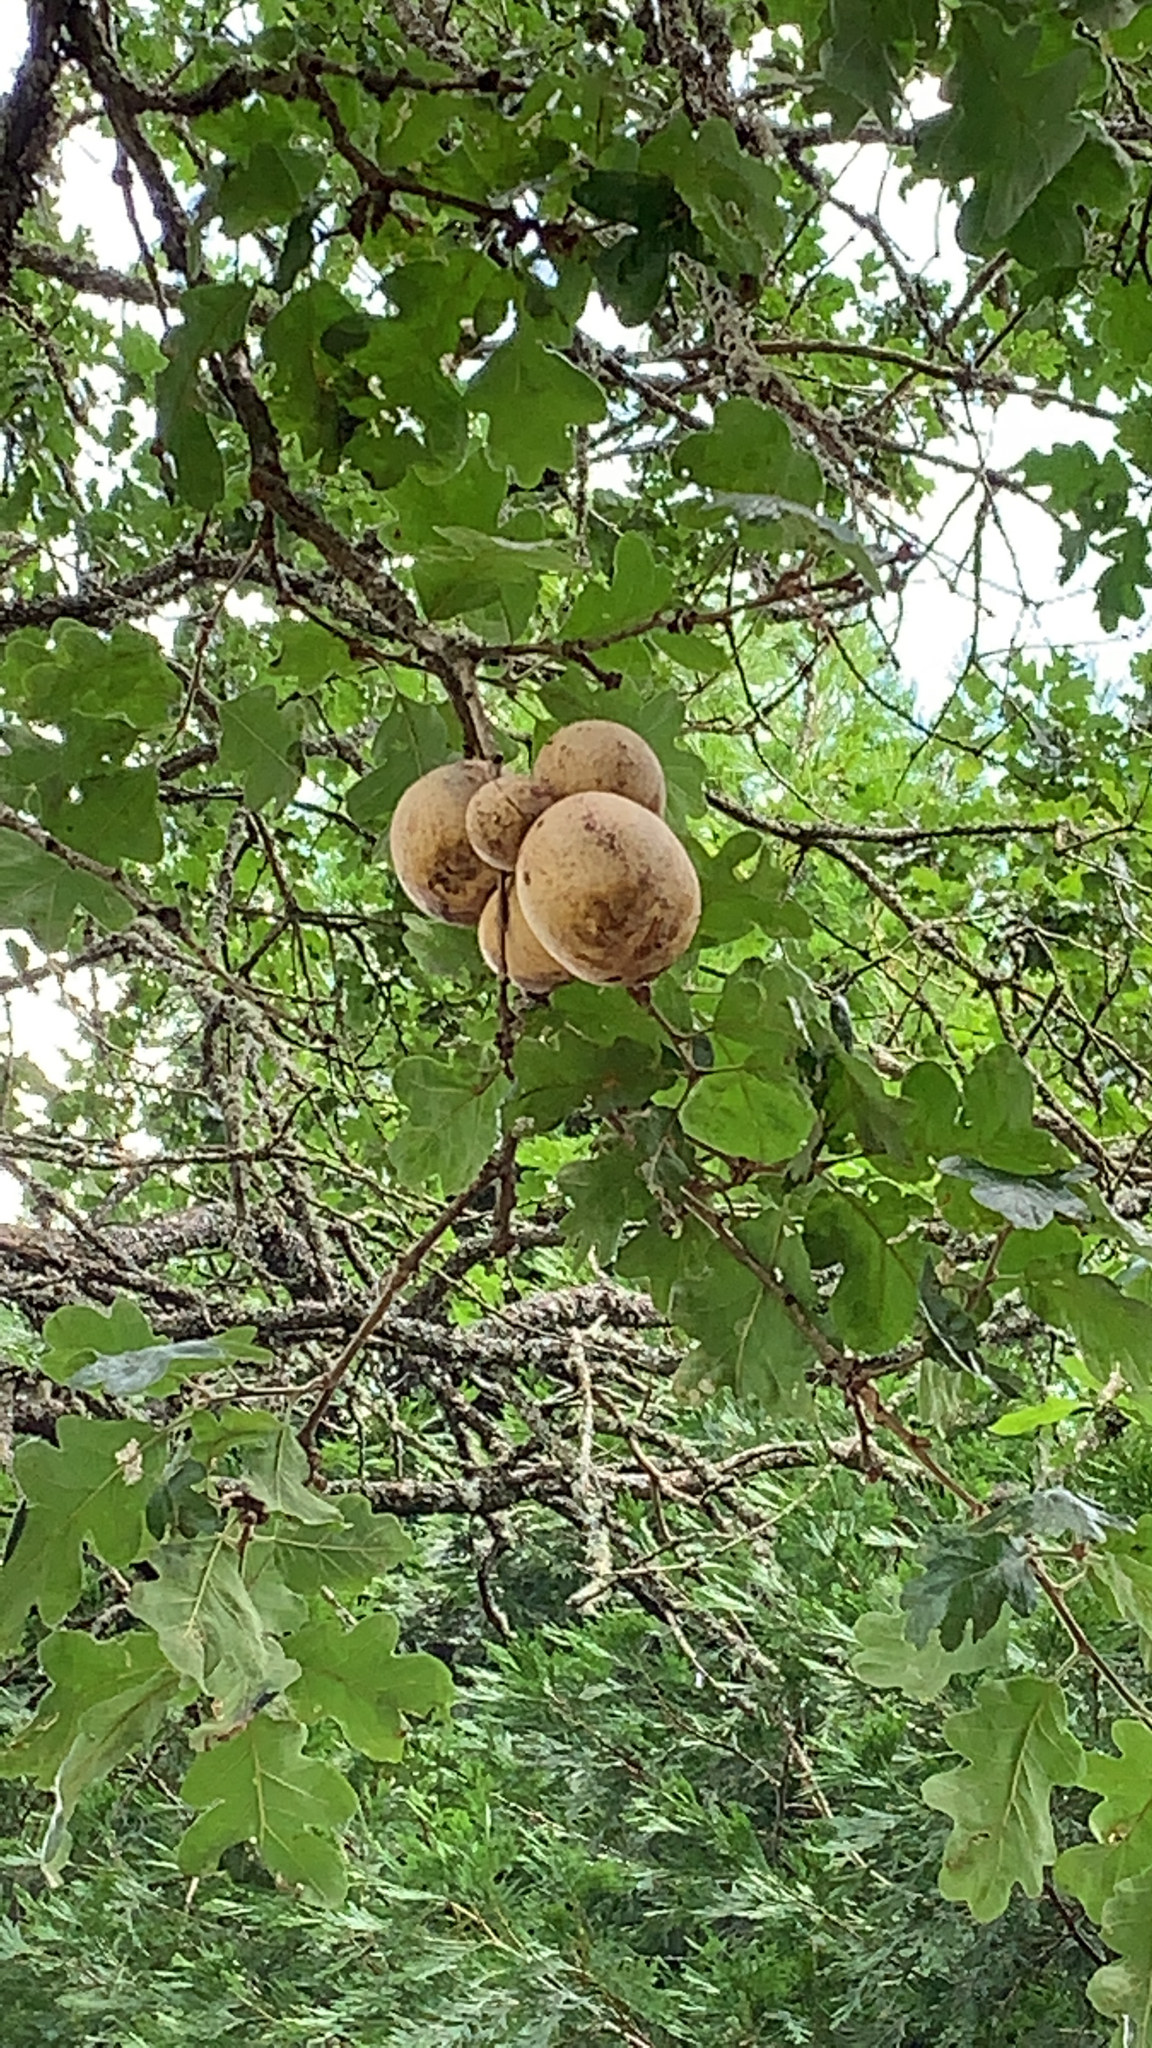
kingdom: Animalia
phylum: Arthropoda
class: Insecta
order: Hymenoptera
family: Cynipidae
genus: Andricus
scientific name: Andricus quercuscalifornicus
